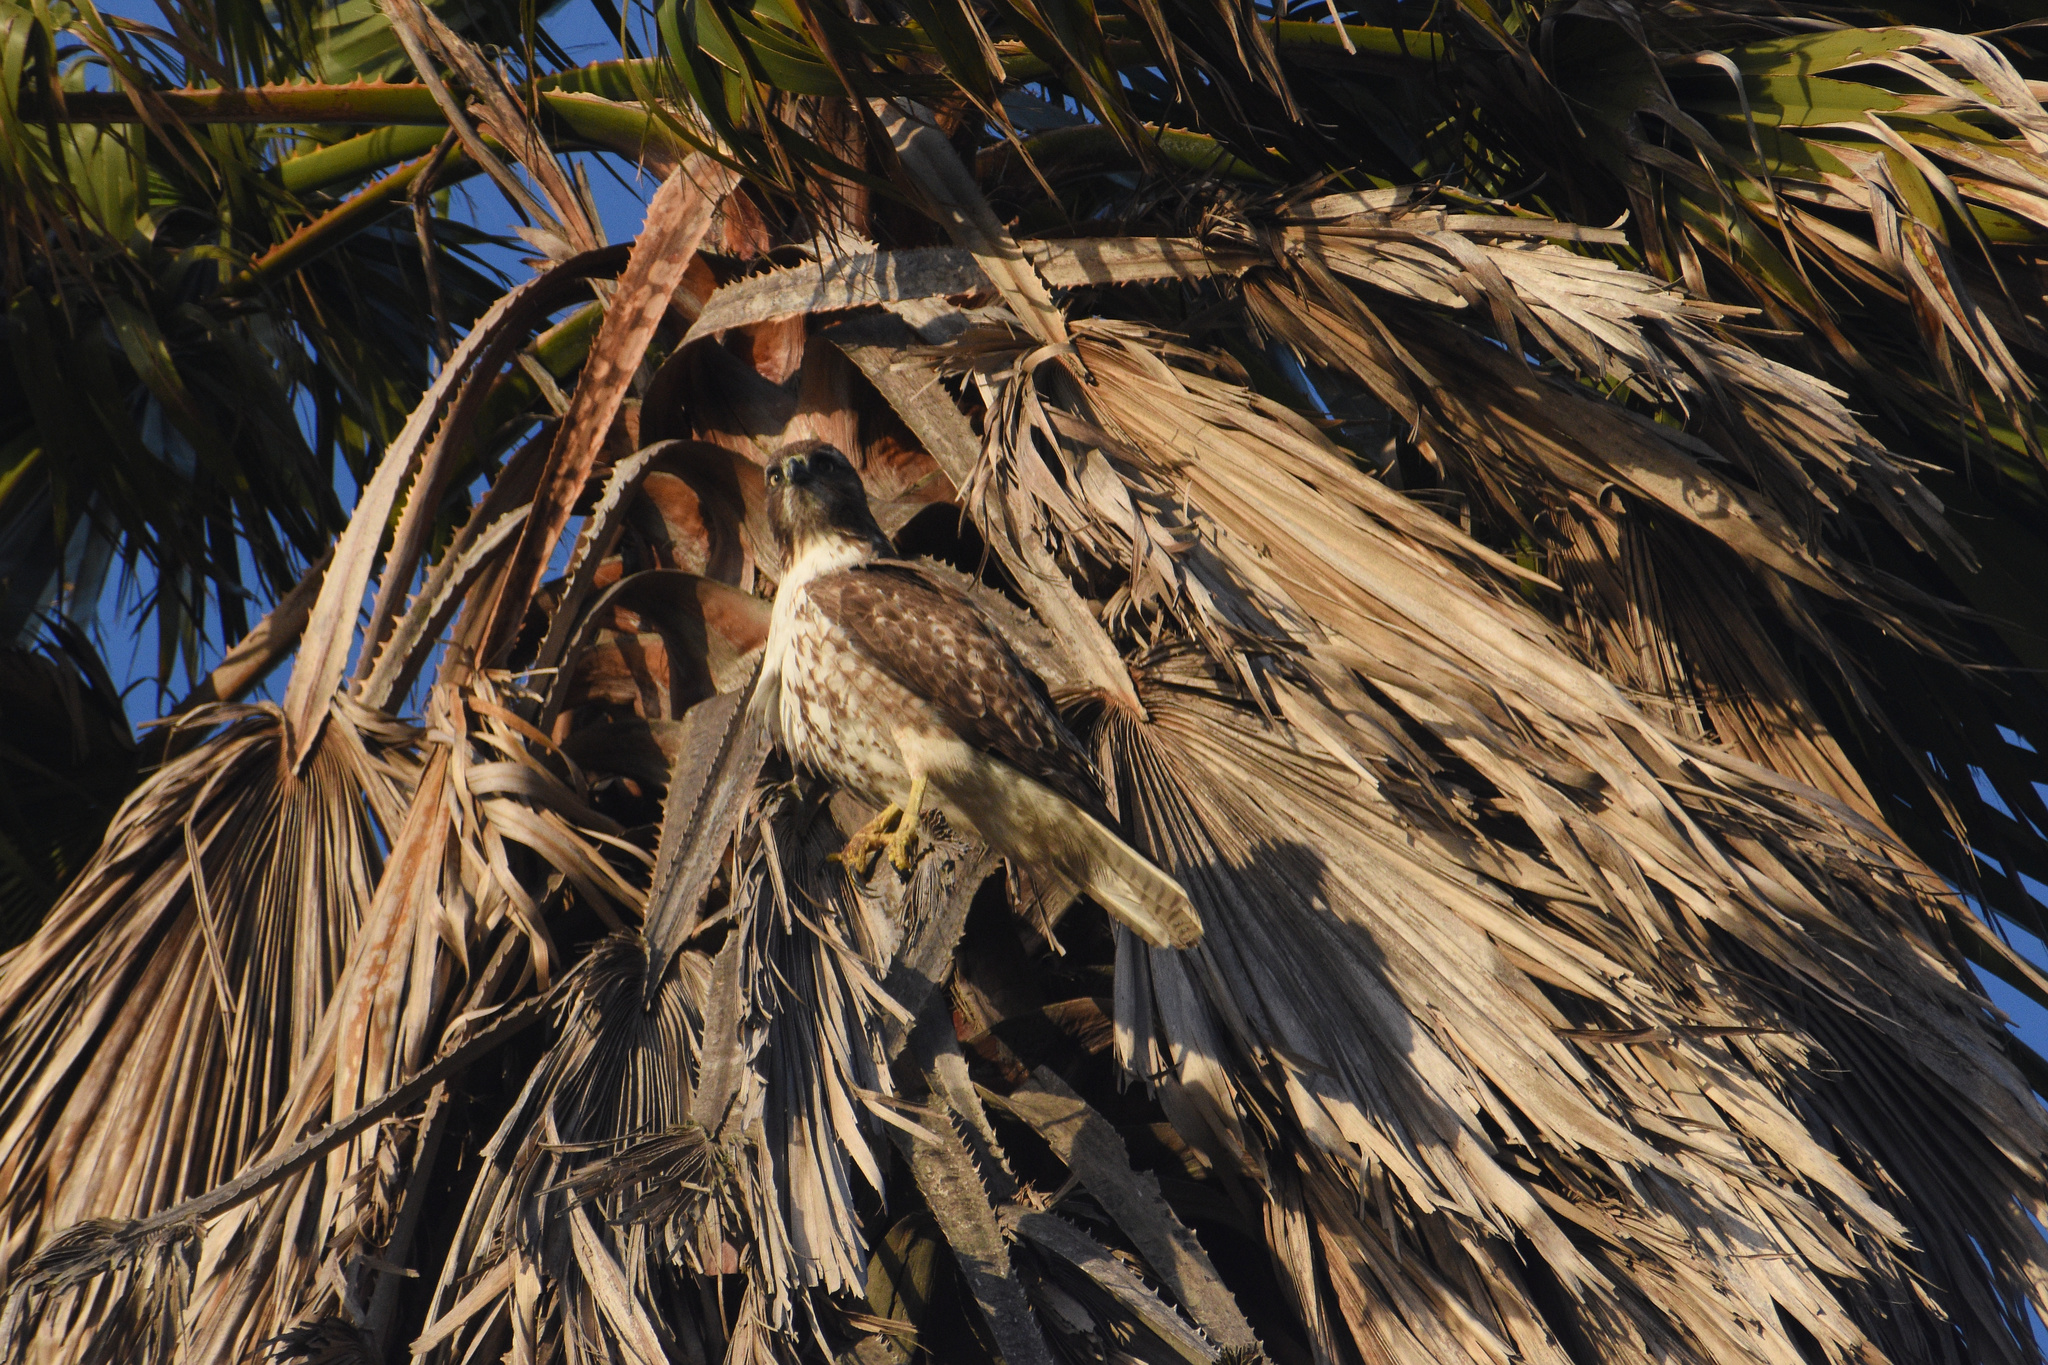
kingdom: Animalia
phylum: Chordata
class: Aves
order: Accipitriformes
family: Accipitridae
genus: Buteo
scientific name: Buteo jamaicensis
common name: Red-tailed hawk
